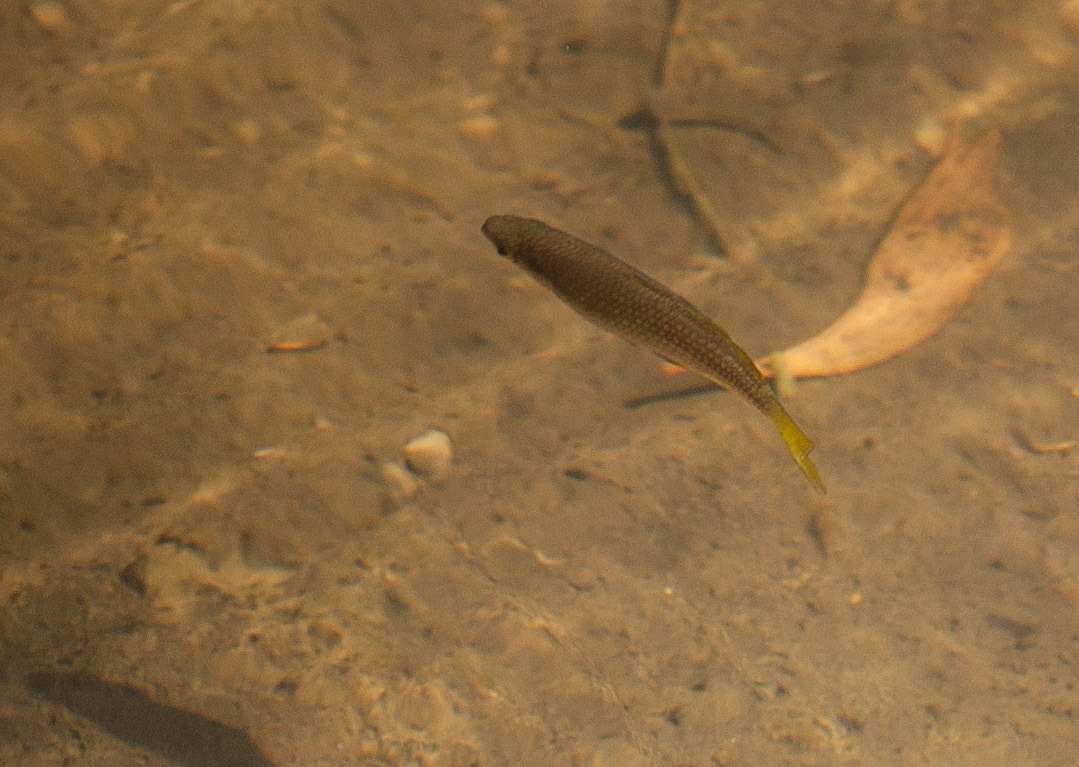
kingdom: Animalia
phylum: Chordata
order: Atheriniformes
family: Melanotaeniidae
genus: Melanotaenia
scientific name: Melanotaenia splendida
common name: Checkered rainbowfish
